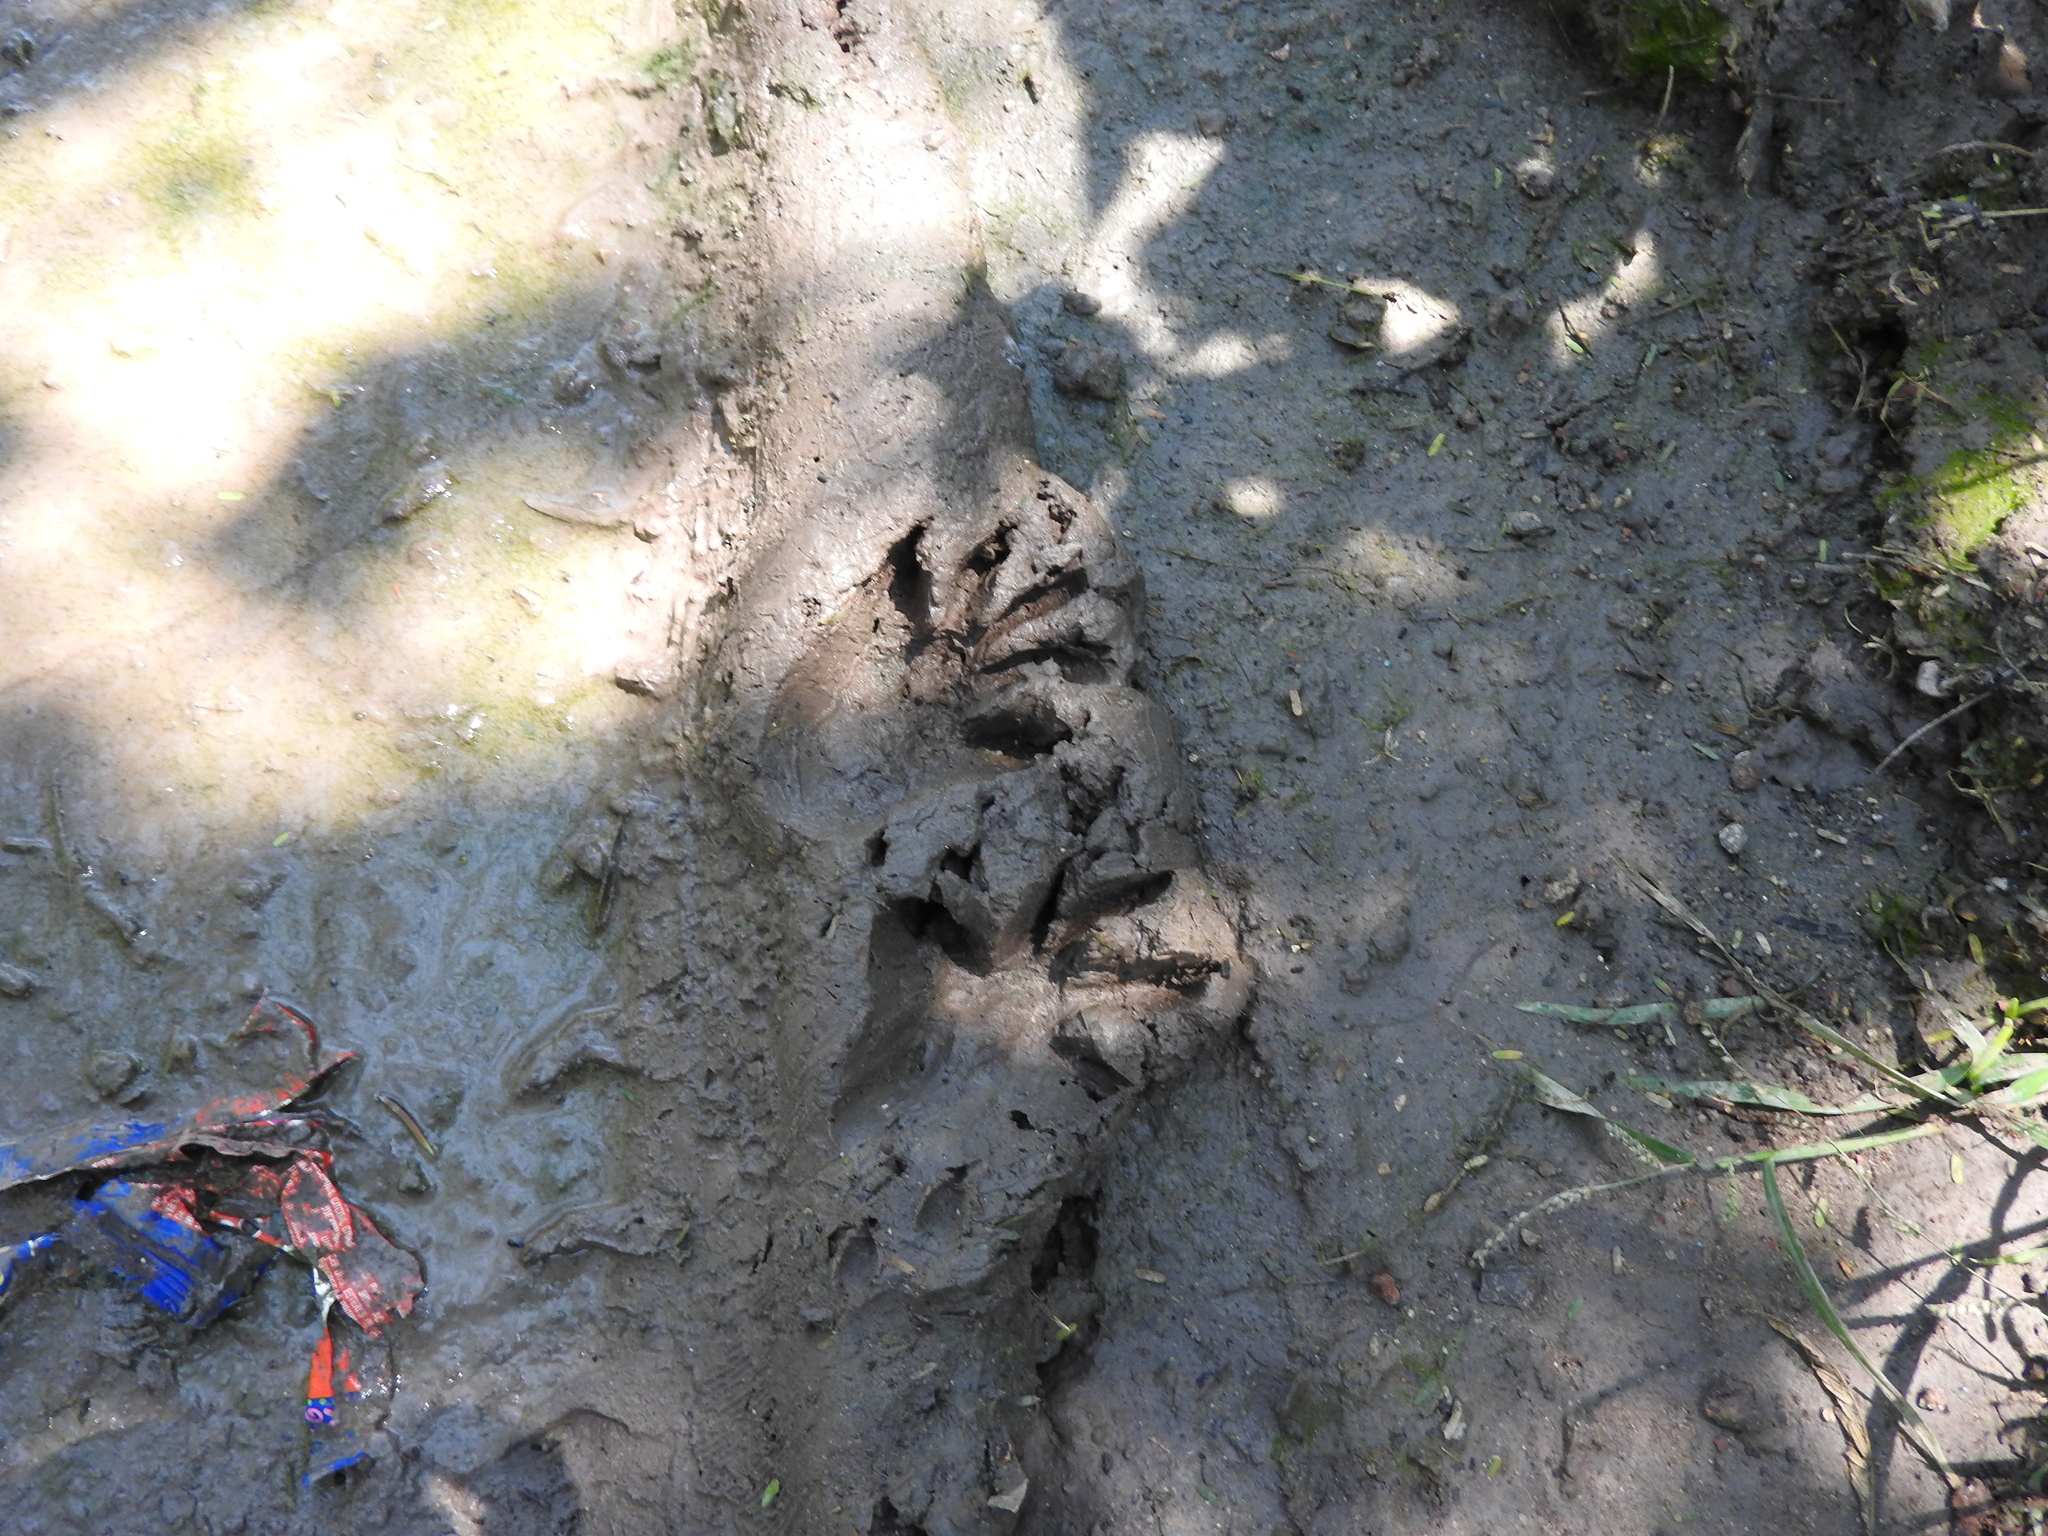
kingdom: Animalia
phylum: Chordata
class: Mammalia
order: Carnivora
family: Procyonidae
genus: Procyon
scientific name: Procyon lotor
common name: Raccoon
